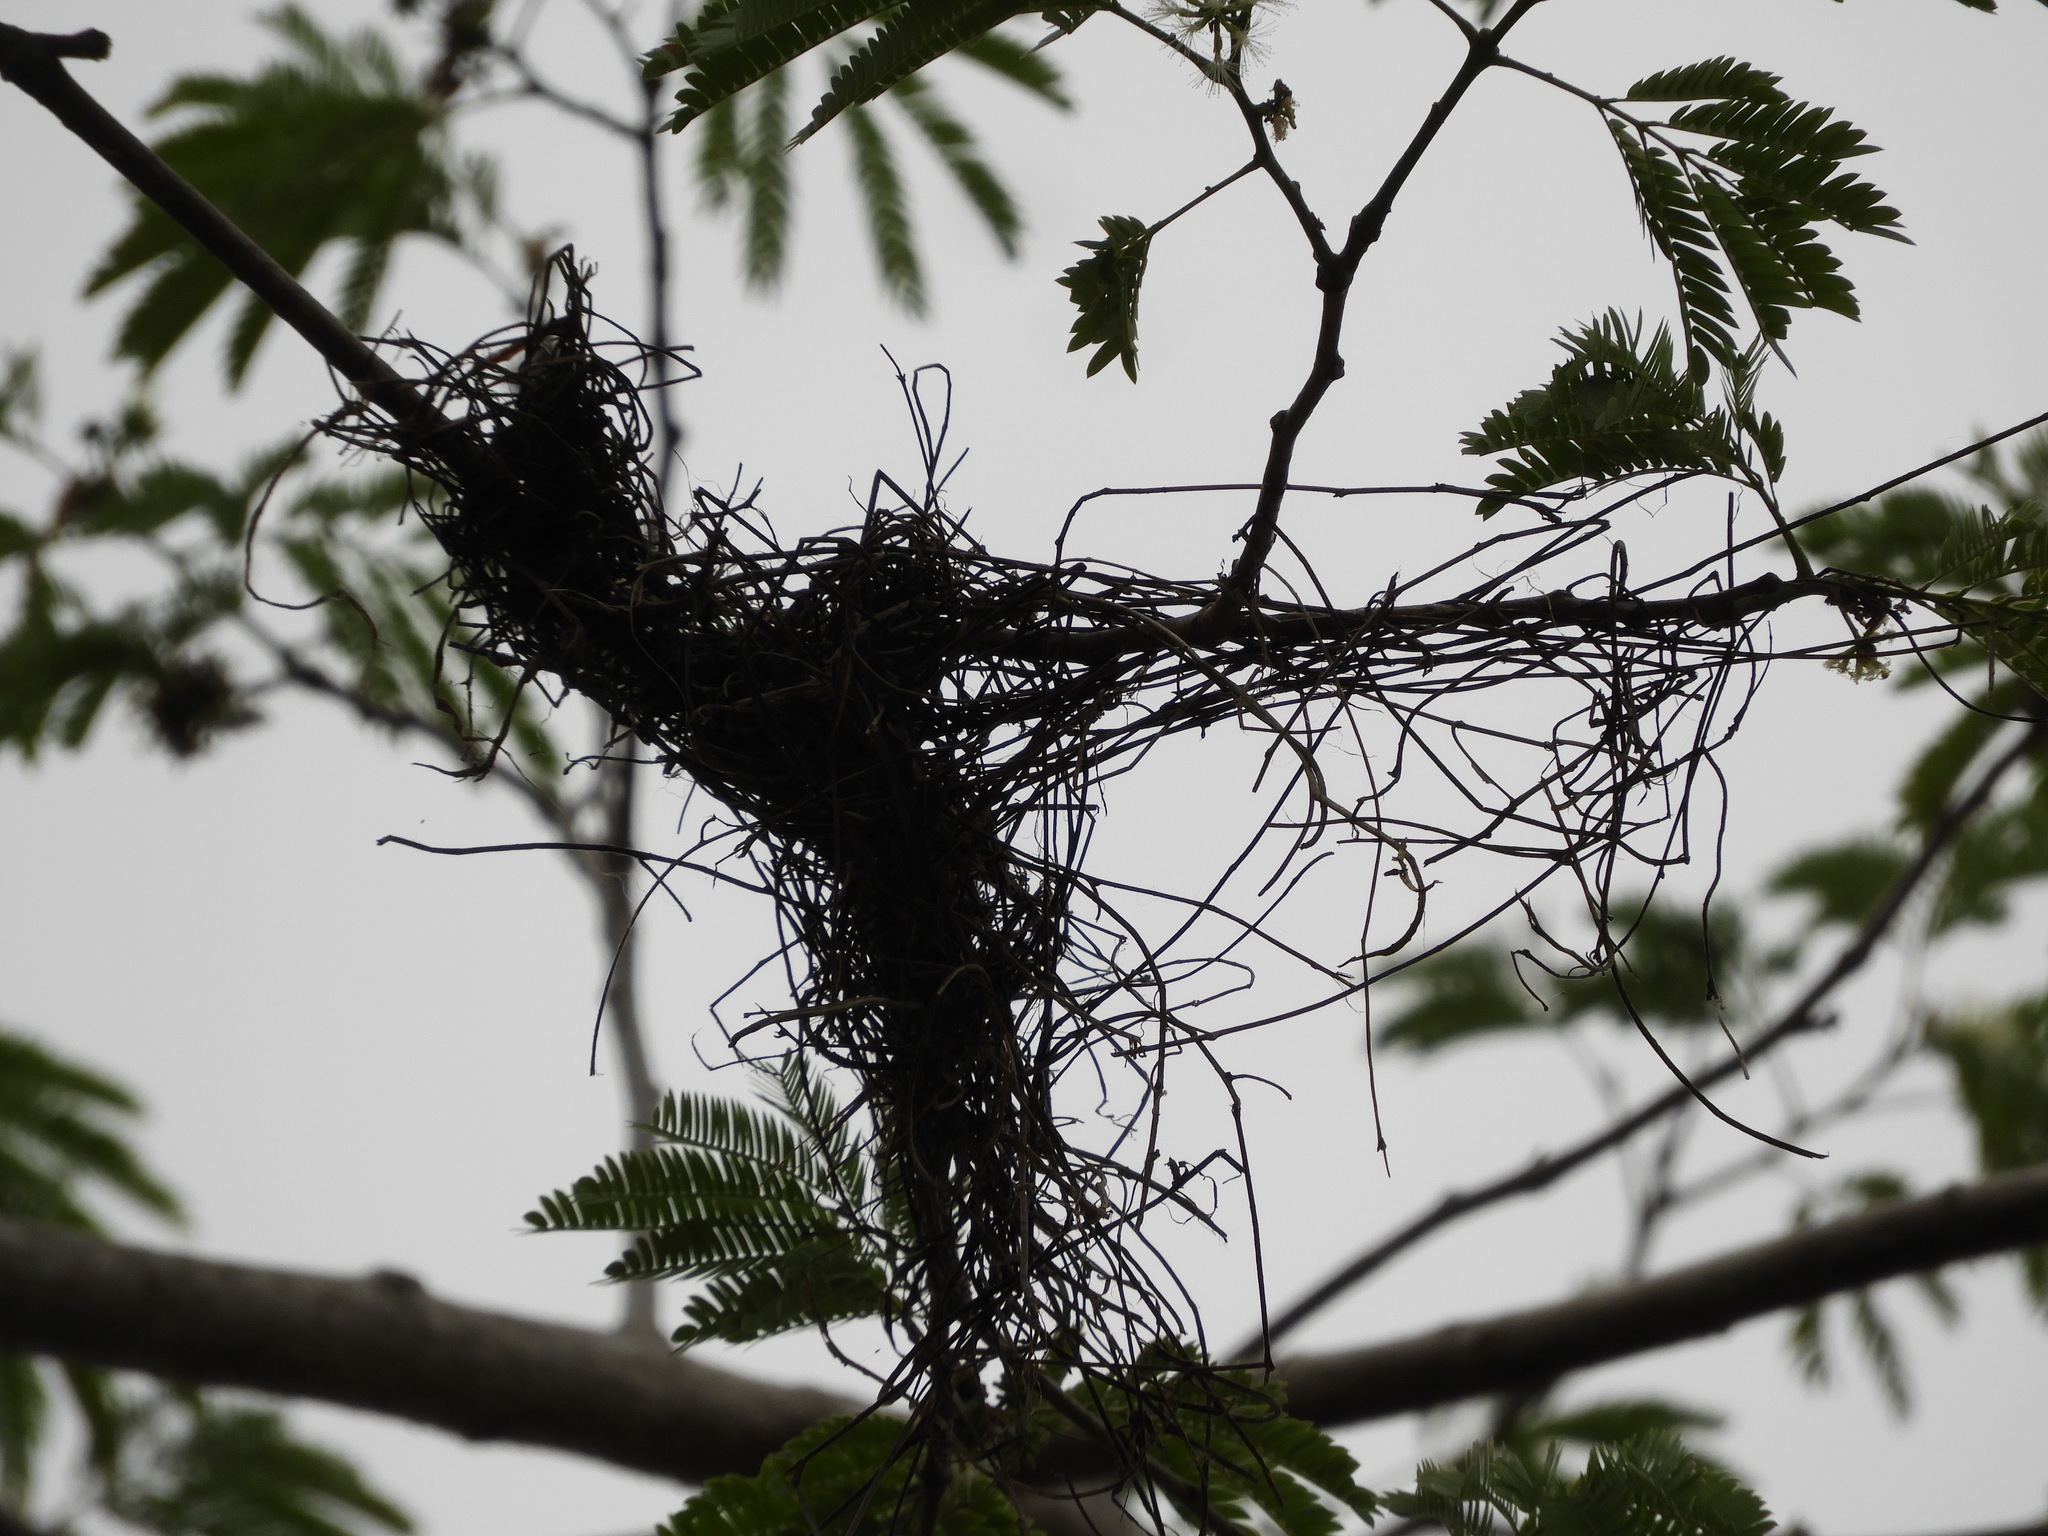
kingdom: Animalia
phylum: Chordata
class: Aves
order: Passeriformes
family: Icteridae
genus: Icterus
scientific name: Icterus
